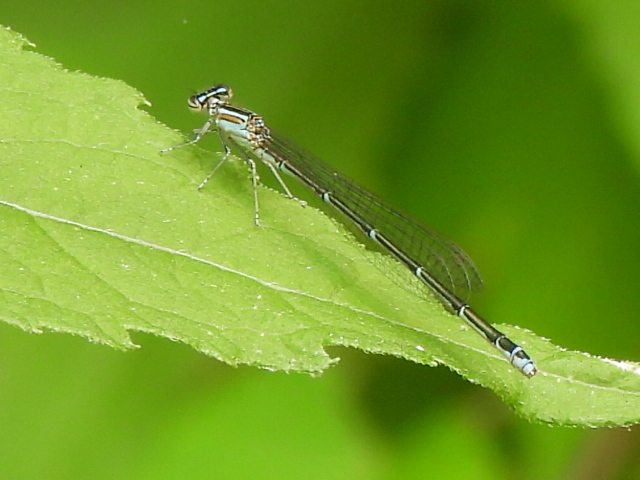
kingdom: Animalia
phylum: Arthropoda
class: Insecta
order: Odonata
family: Coenagrionidae
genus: Enallagma
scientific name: Enallagma exsulans
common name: Stream bluet
